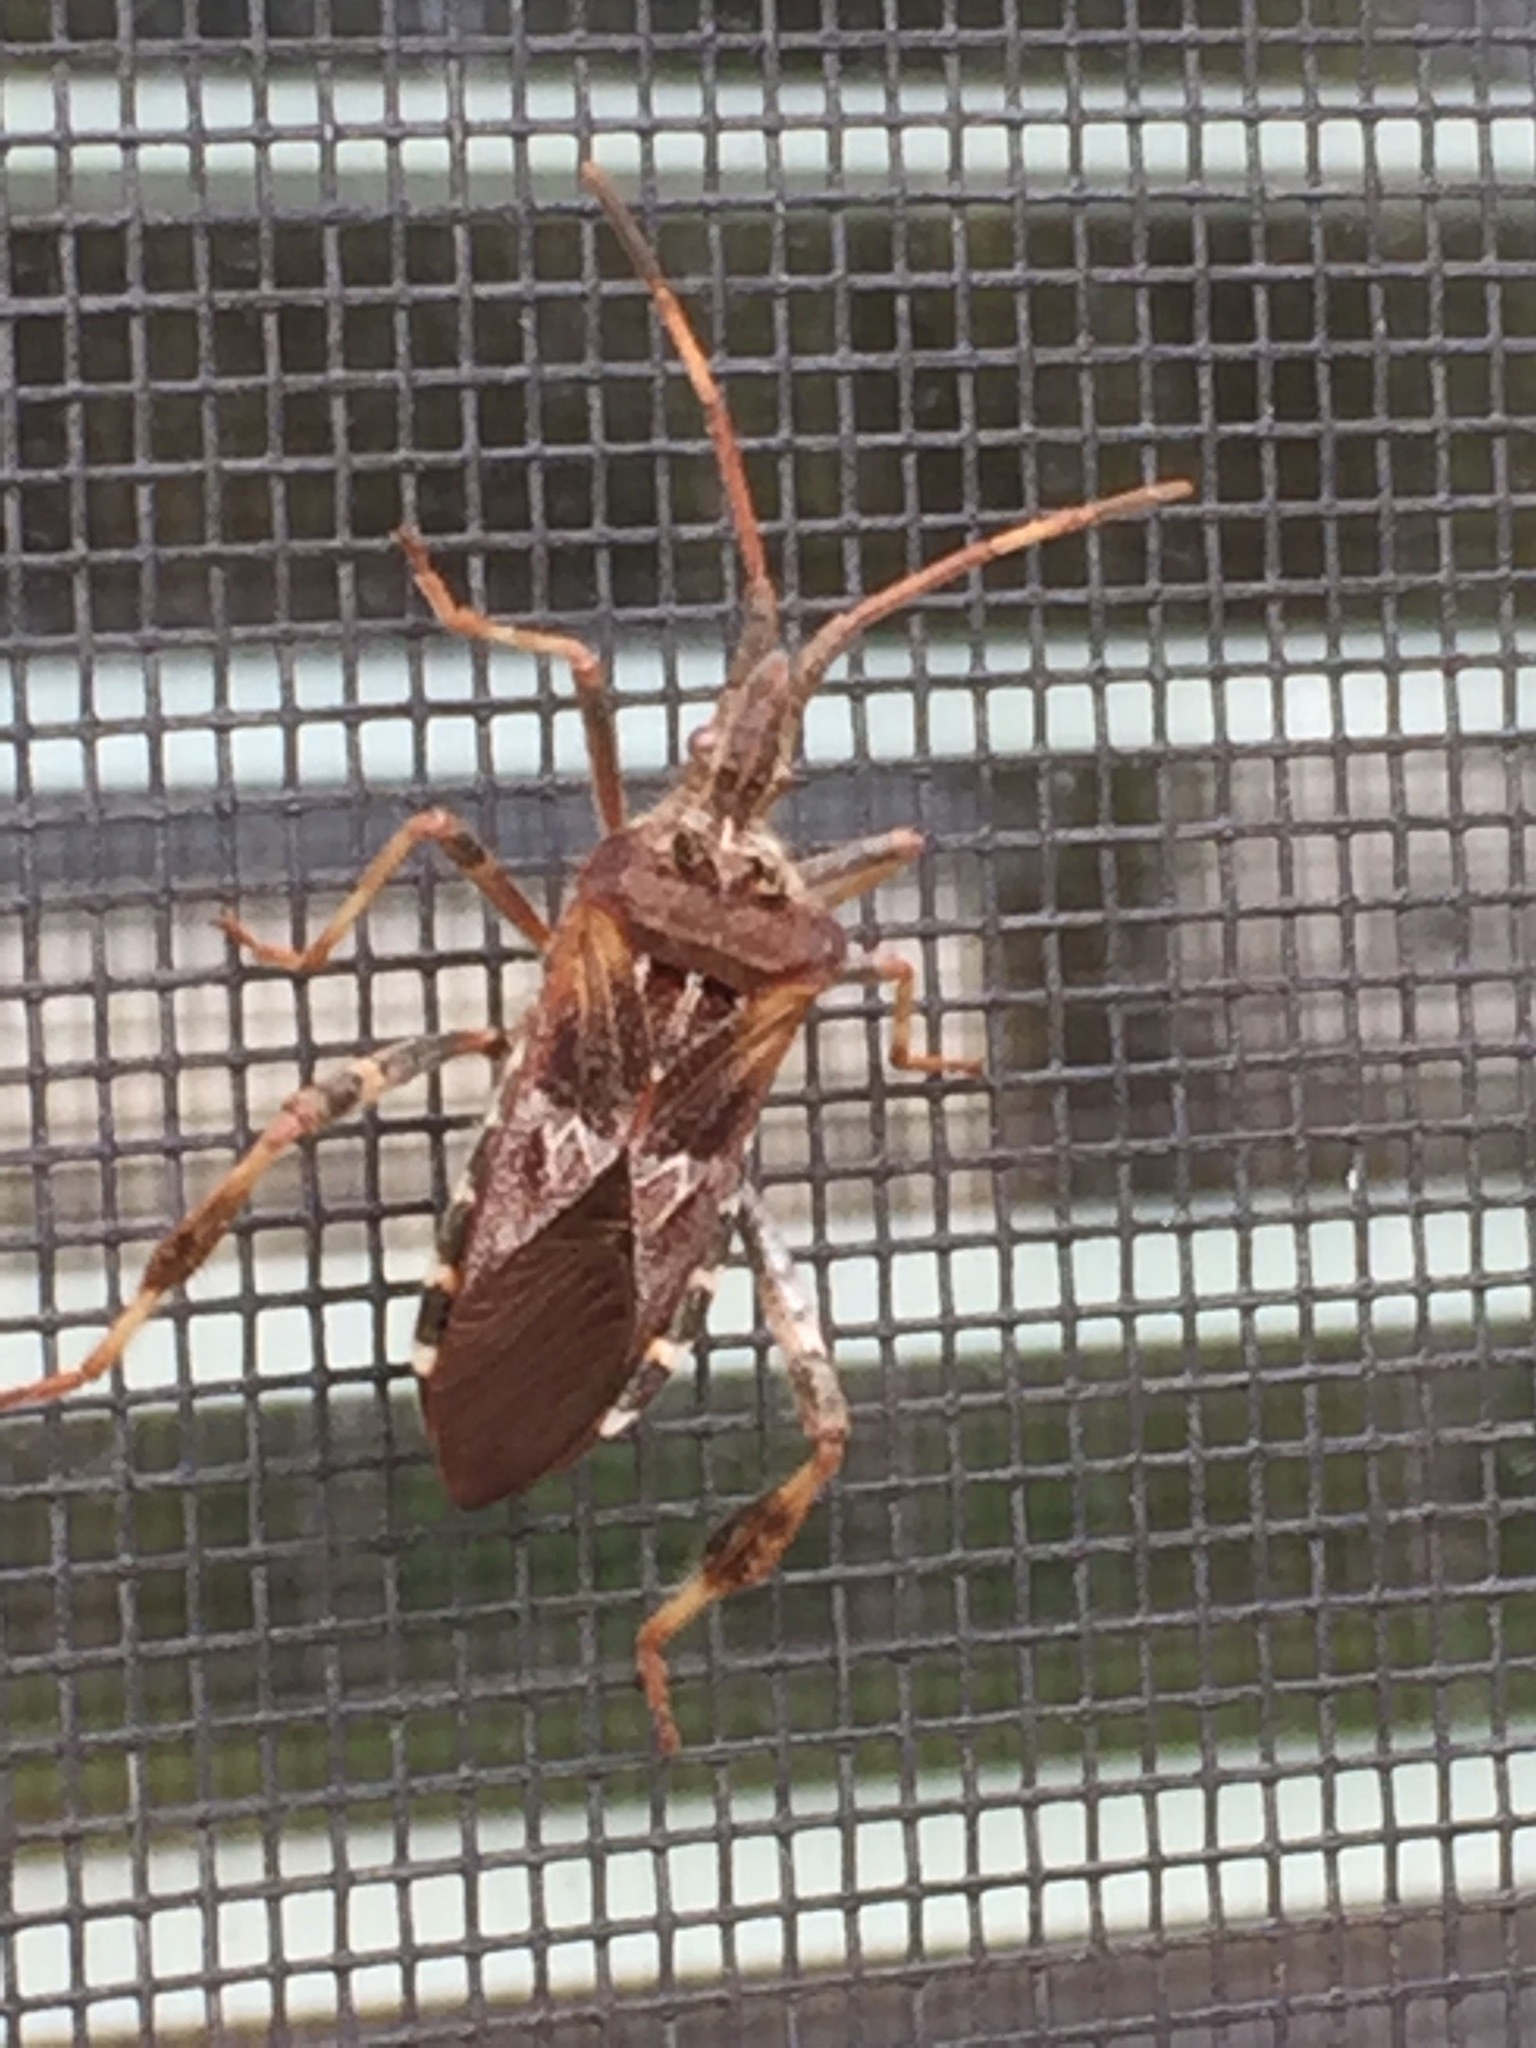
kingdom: Animalia
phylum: Arthropoda
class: Insecta
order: Hemiptera
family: Coreidae
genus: Leptoglossus
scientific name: Leptoglossus occidentalis
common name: Western conifer-seed bug
